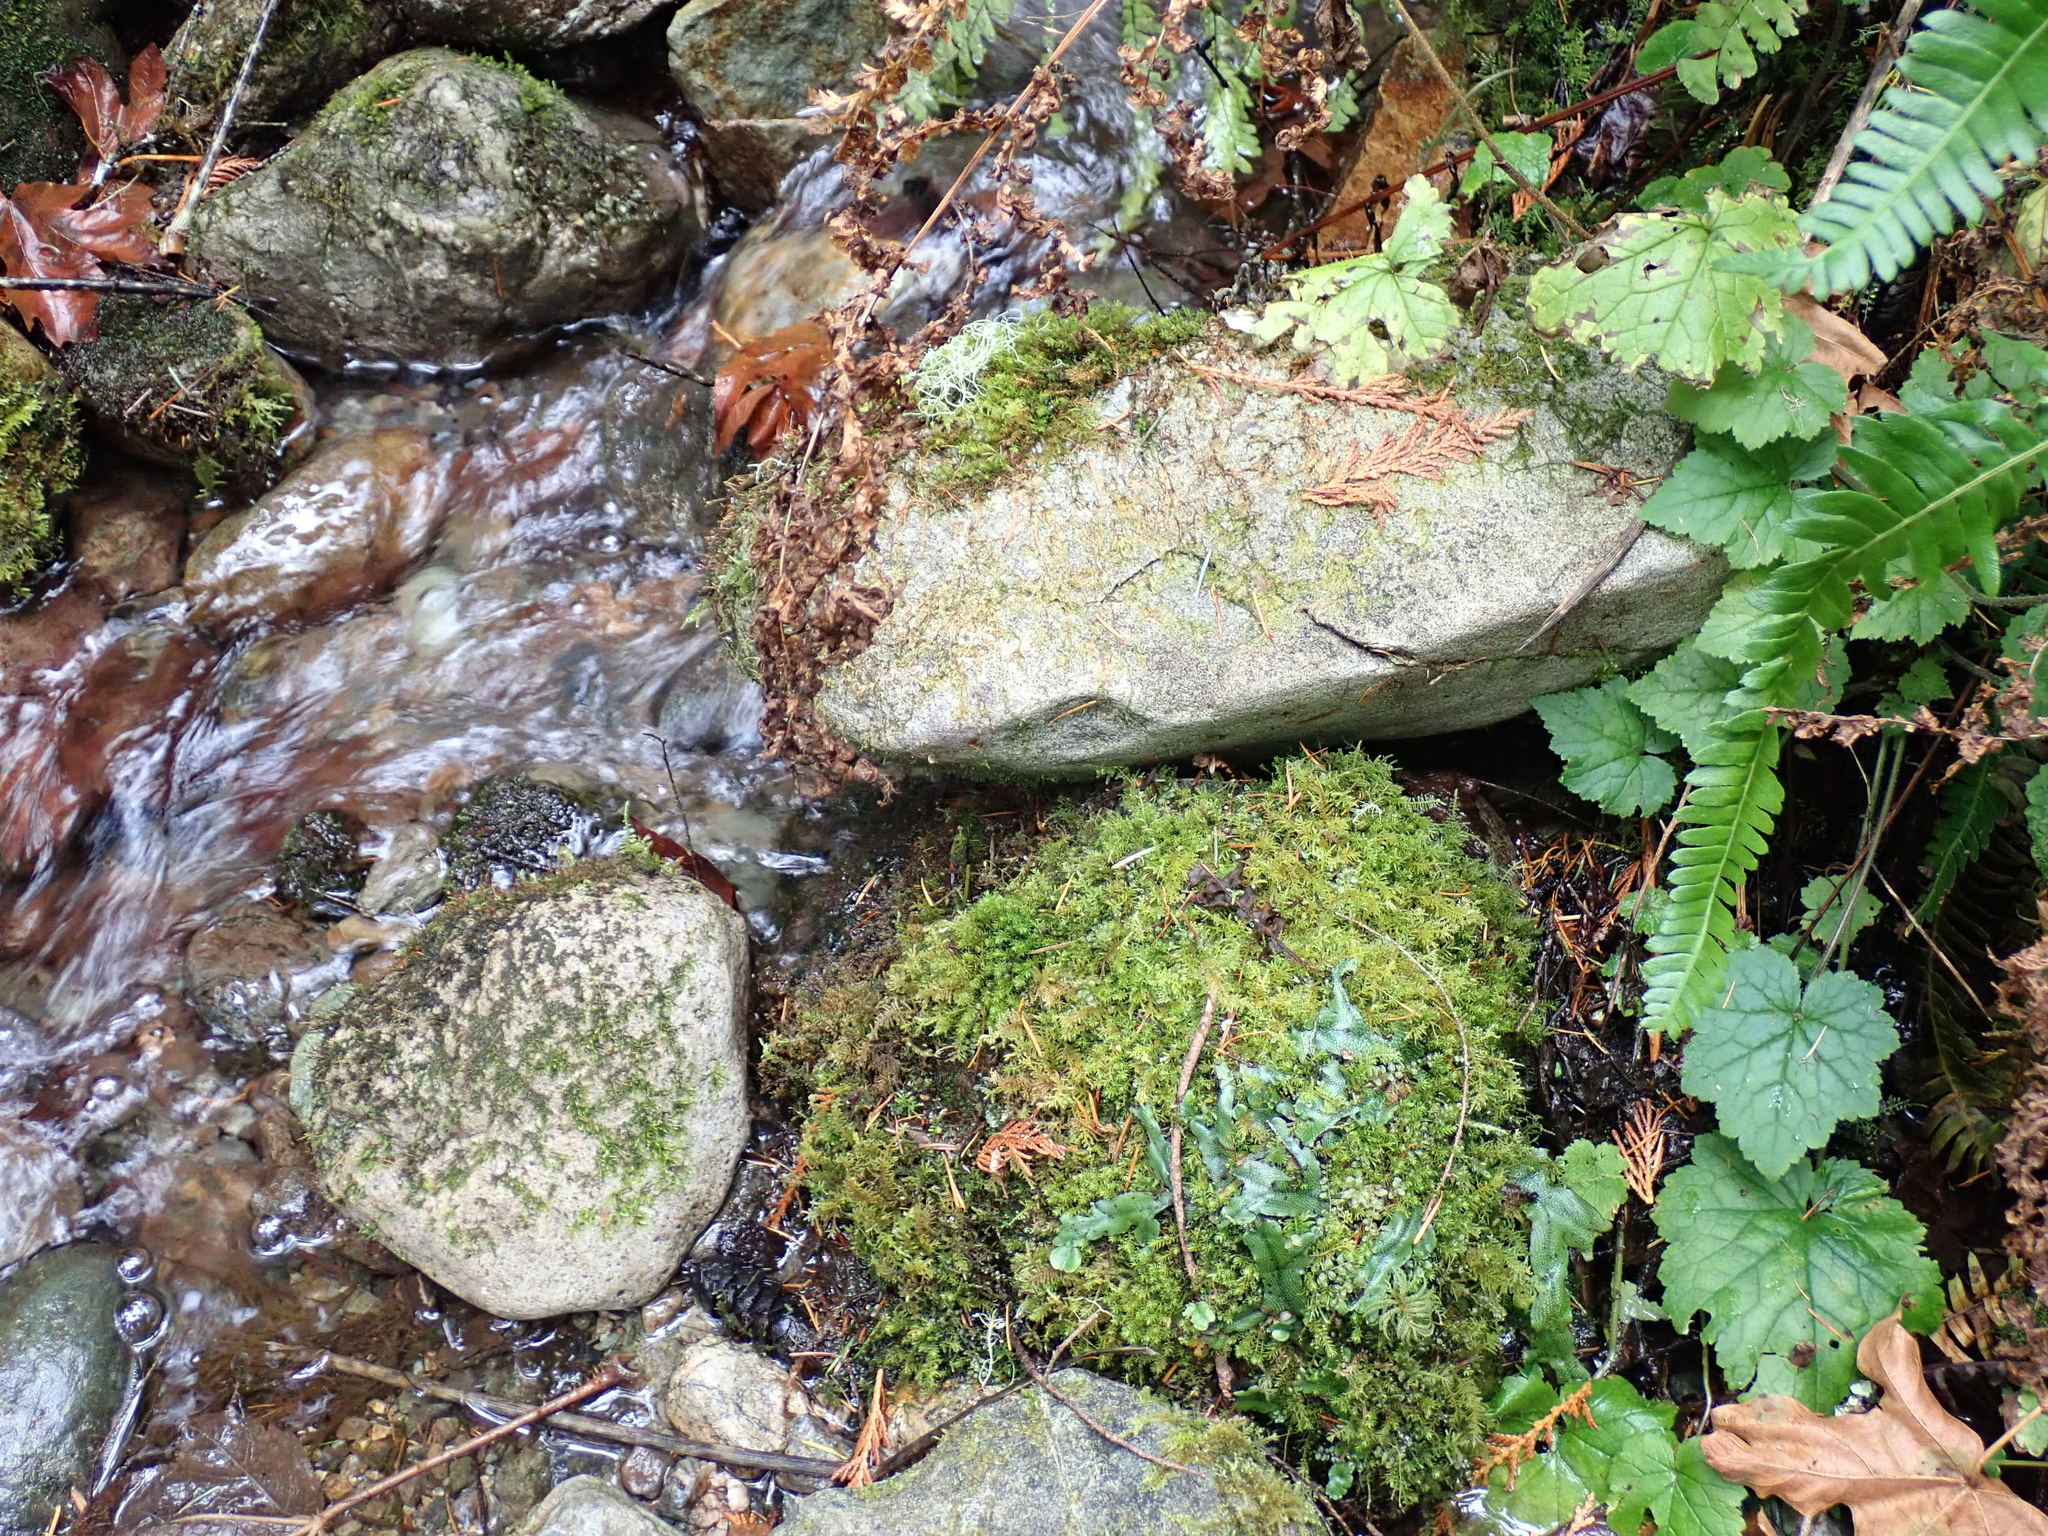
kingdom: Plantae
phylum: Marchantiophyta
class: Marchantiopsida
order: Marchantiales
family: Conocephalaceae
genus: Conocephalum
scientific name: Conocephalum salebrosum
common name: Cat-tongue liverwort
